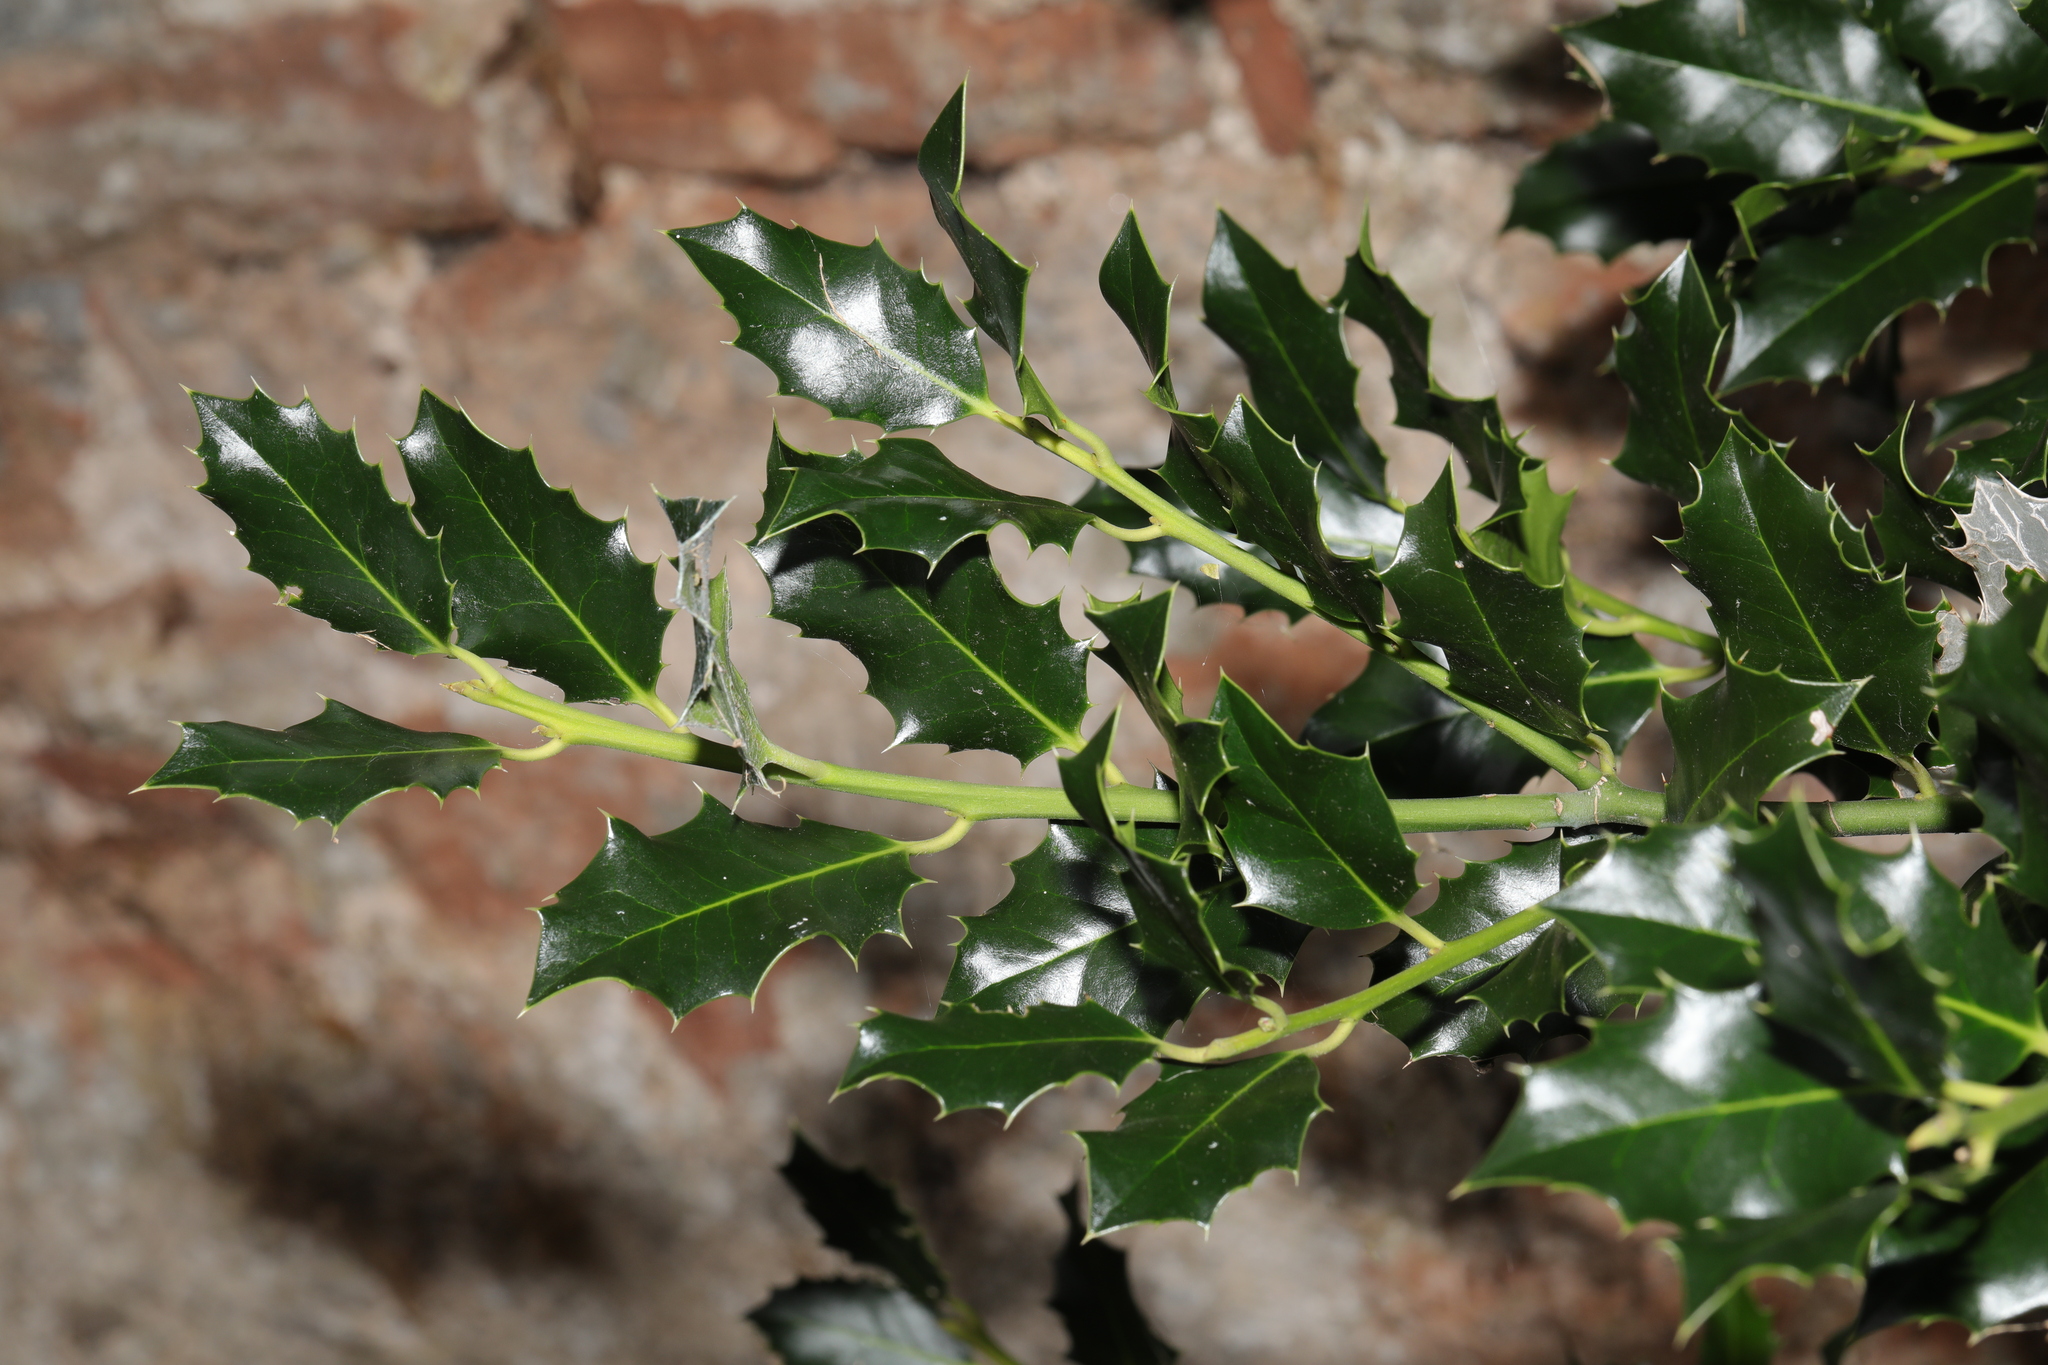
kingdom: Plantae
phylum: Tracheophyta
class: Magnoliopsida
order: Aquifoliales
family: Aquifoliaceae
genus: Ilex
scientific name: Ilex aquifolium
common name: English holly
